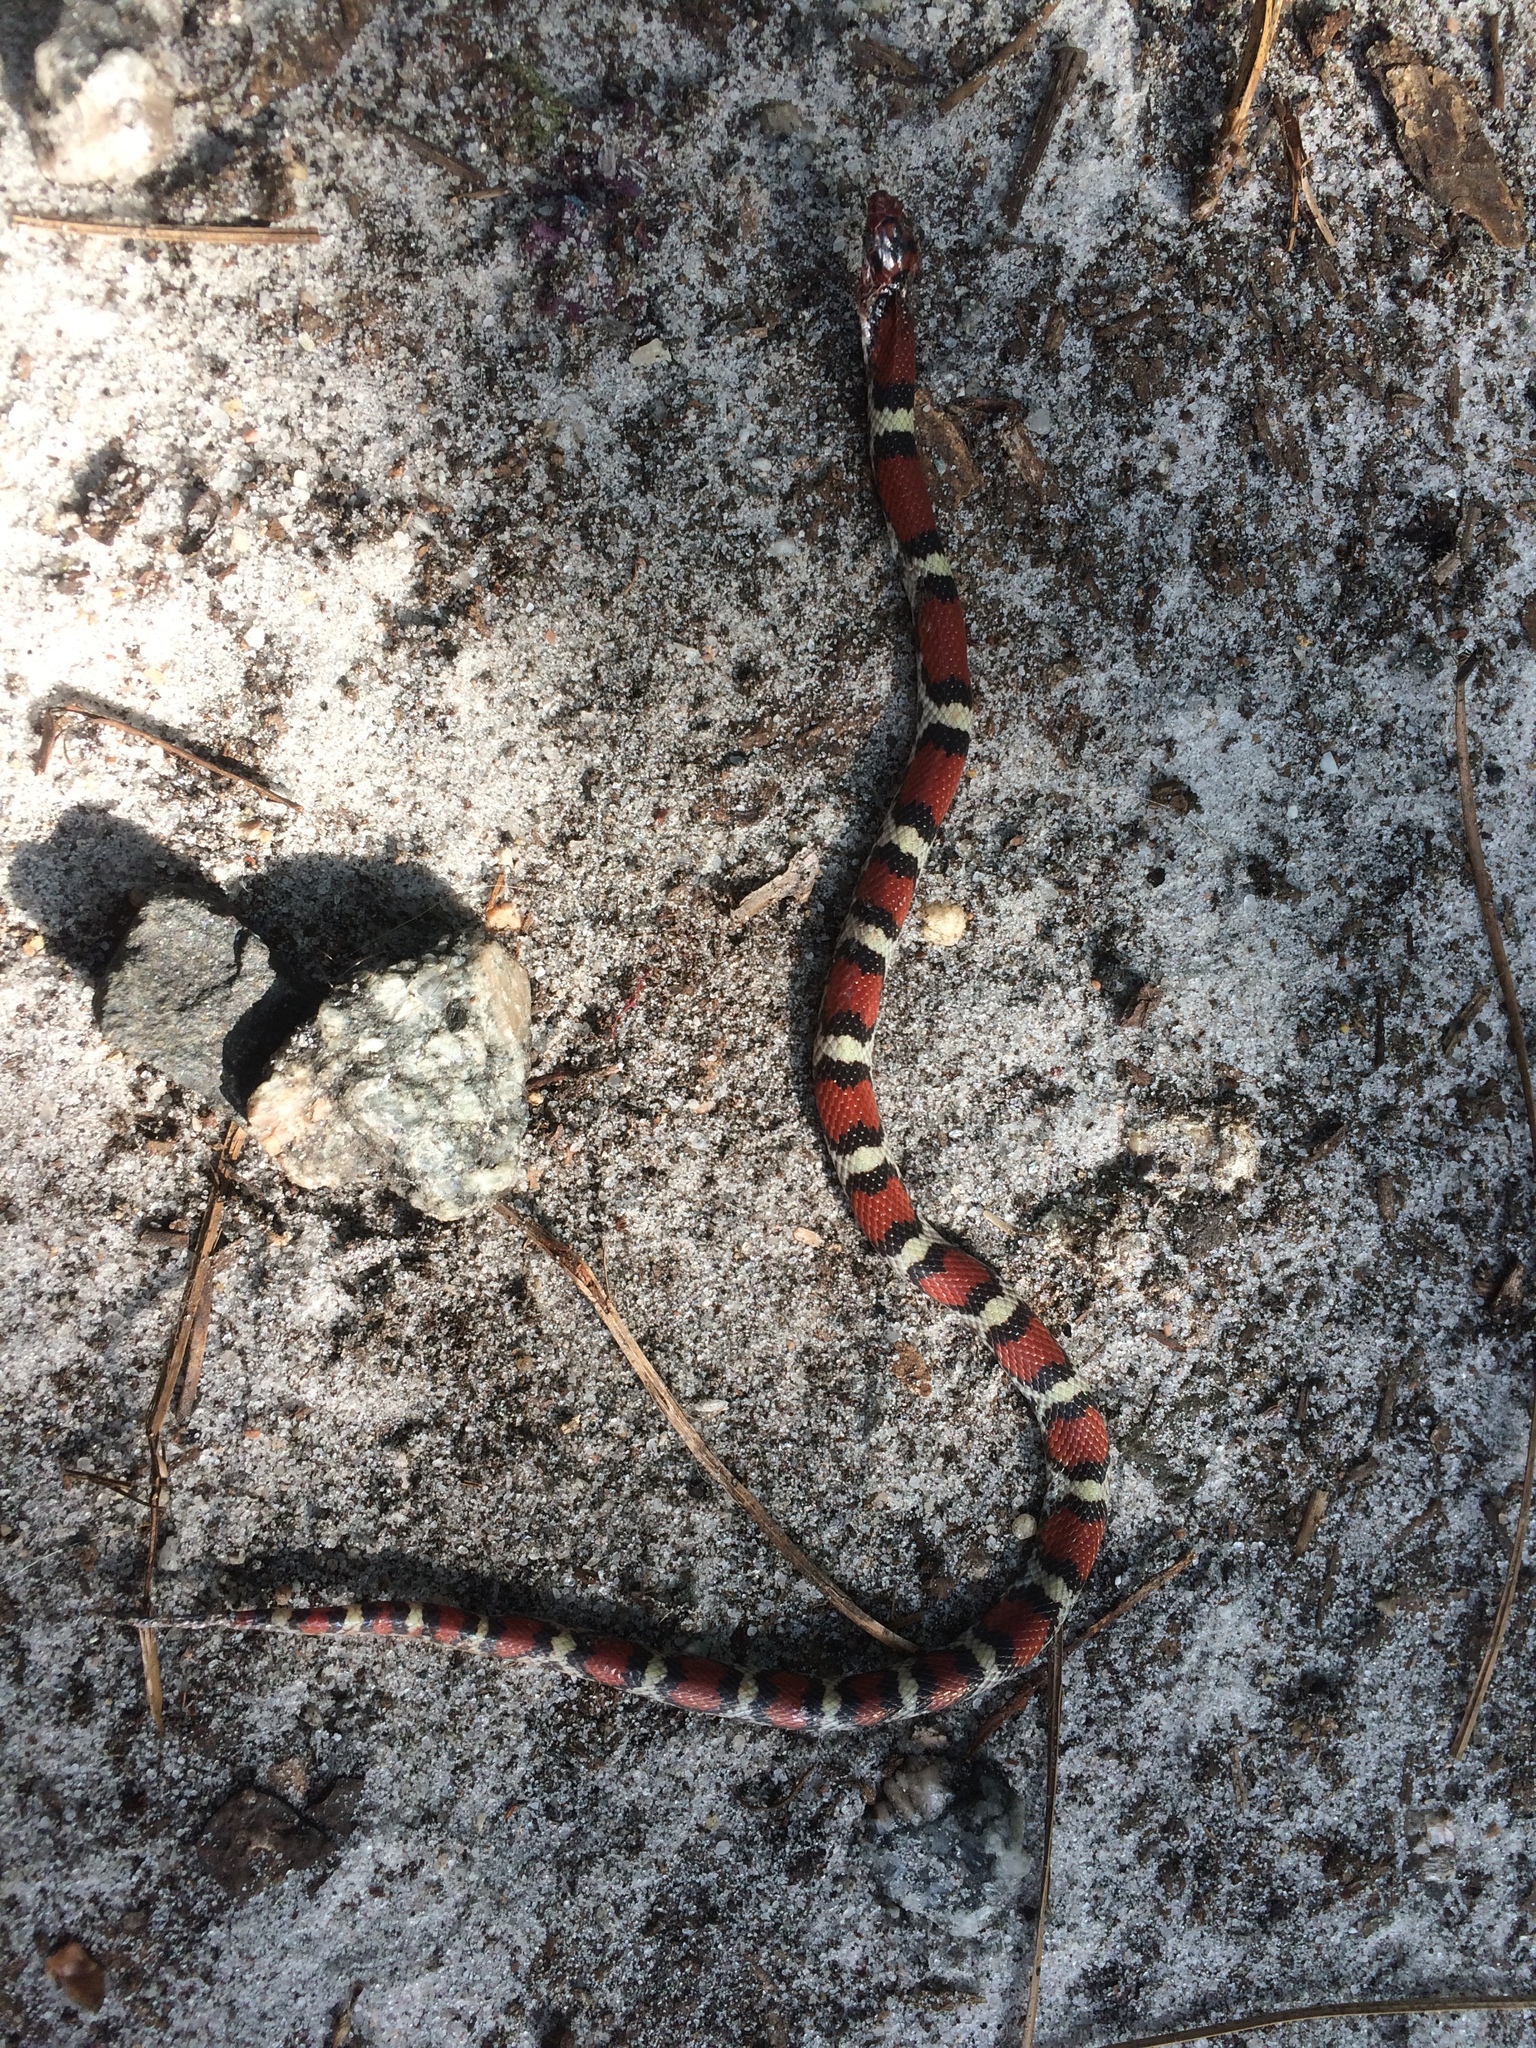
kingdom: Animalia
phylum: Chordata
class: Squamata
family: Colubridae
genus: Cemophora
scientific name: Cemophora coccinea
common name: Scarlet snake
